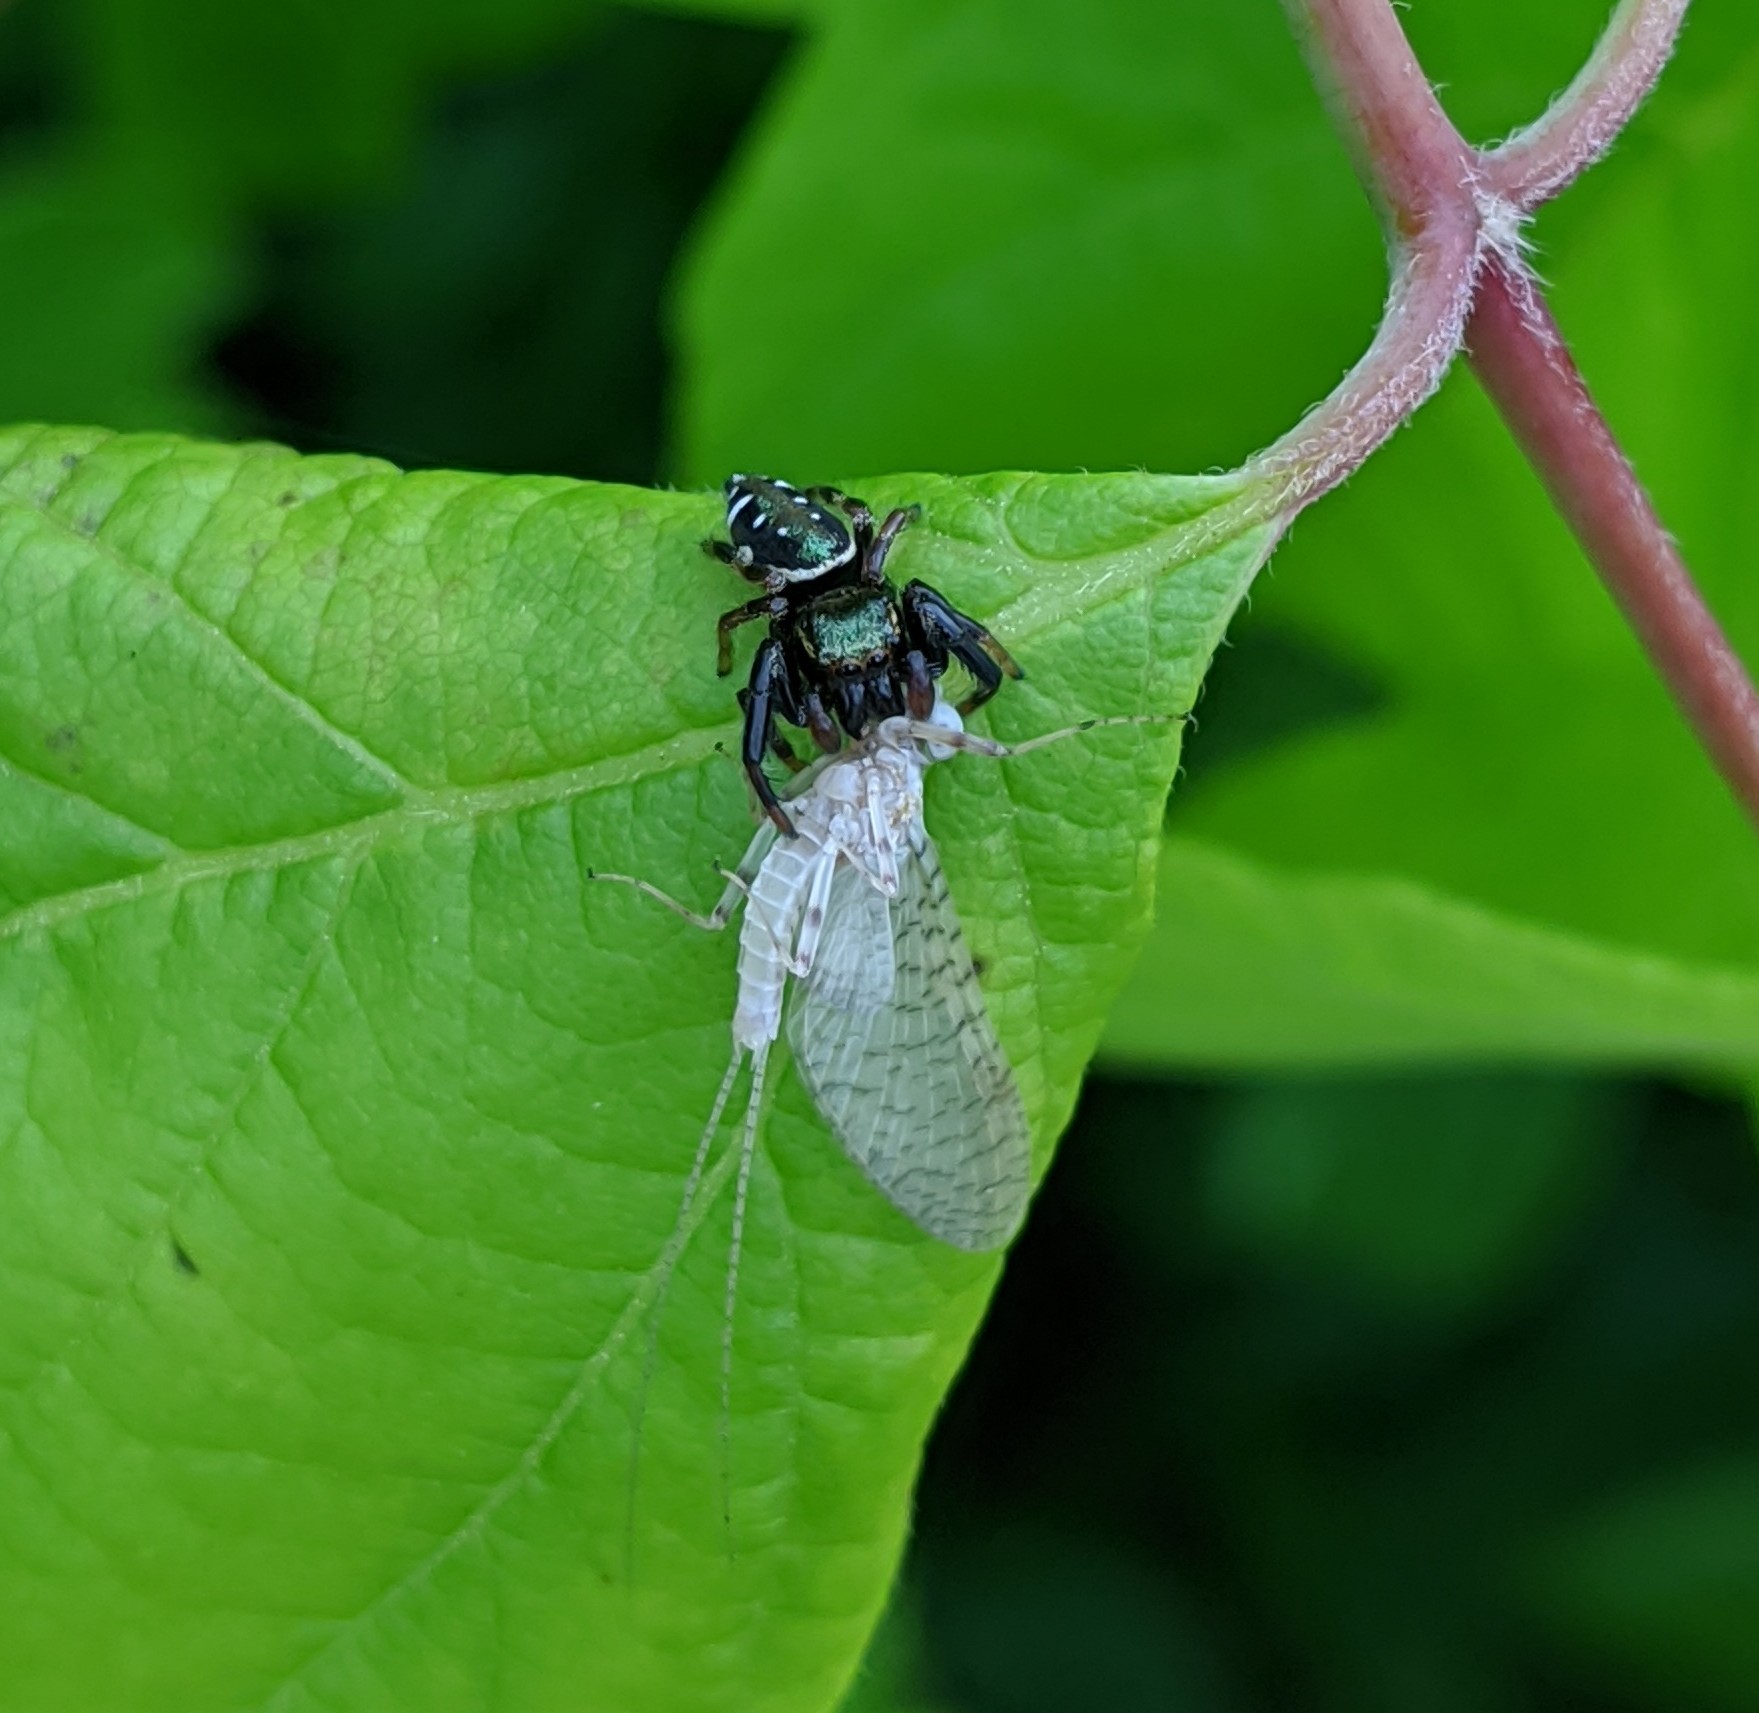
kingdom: Animalia
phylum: Arthropoda
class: Arachnida
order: Araneae
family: Salticidae
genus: Paraphidippus
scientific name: Paraphidippus aurantius
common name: Jumping spiders
